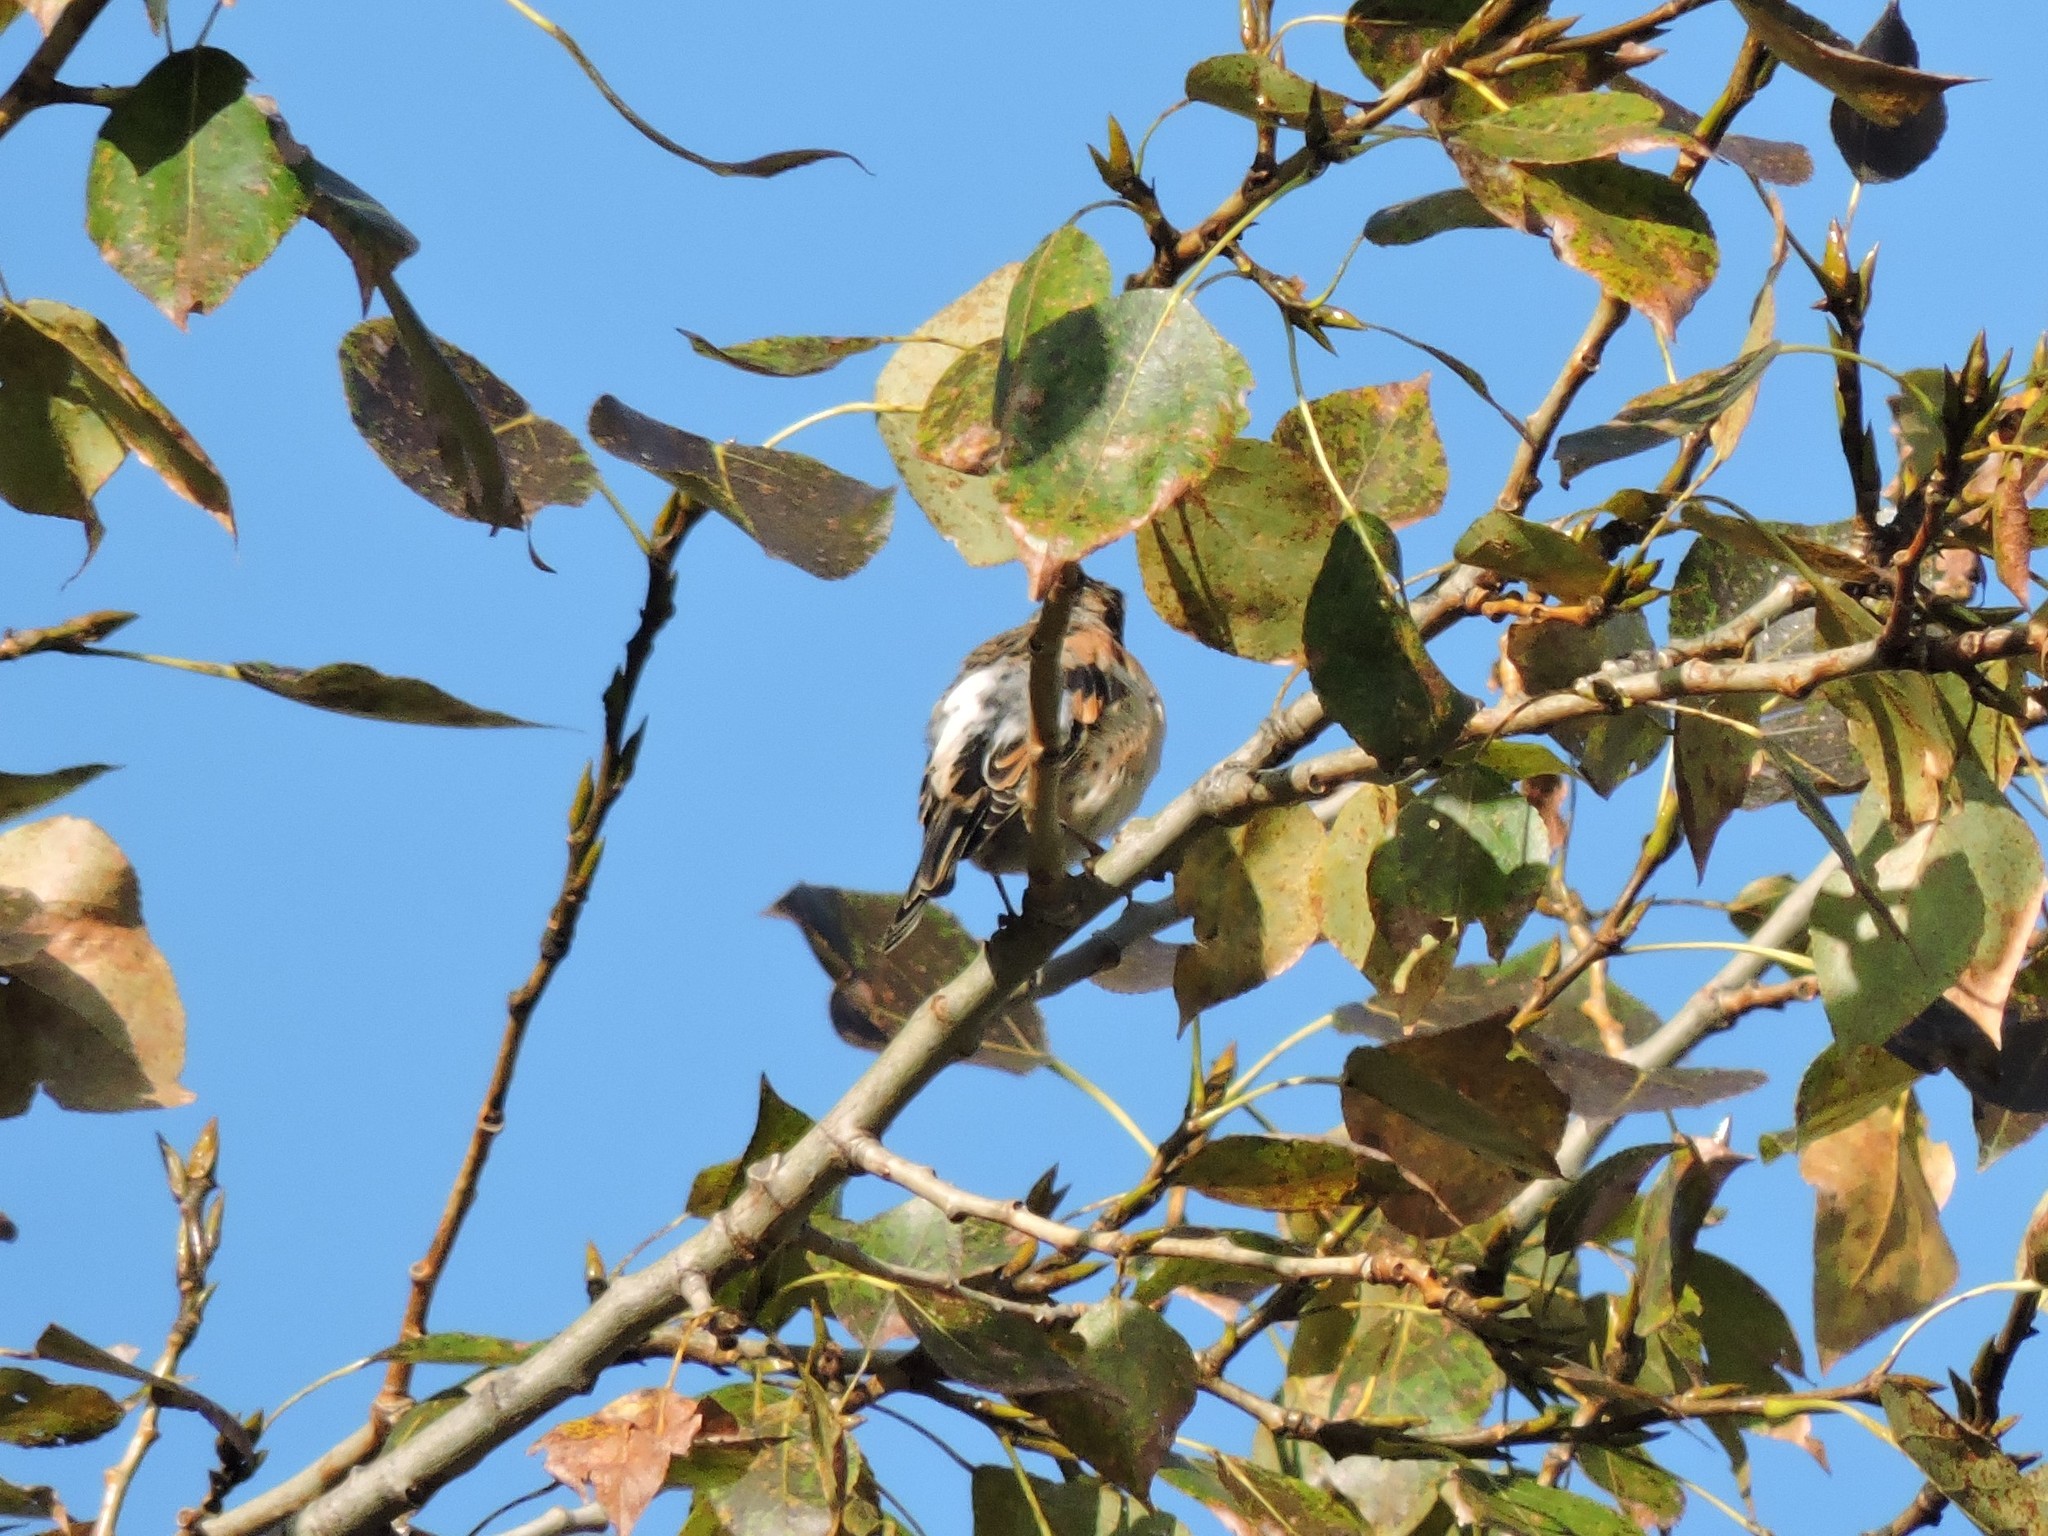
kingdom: Animalia
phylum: Chordata
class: Aves
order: Passeriformes
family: Fringillidae
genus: Fringilla
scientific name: Fringilla montifringilla
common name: Brambling
